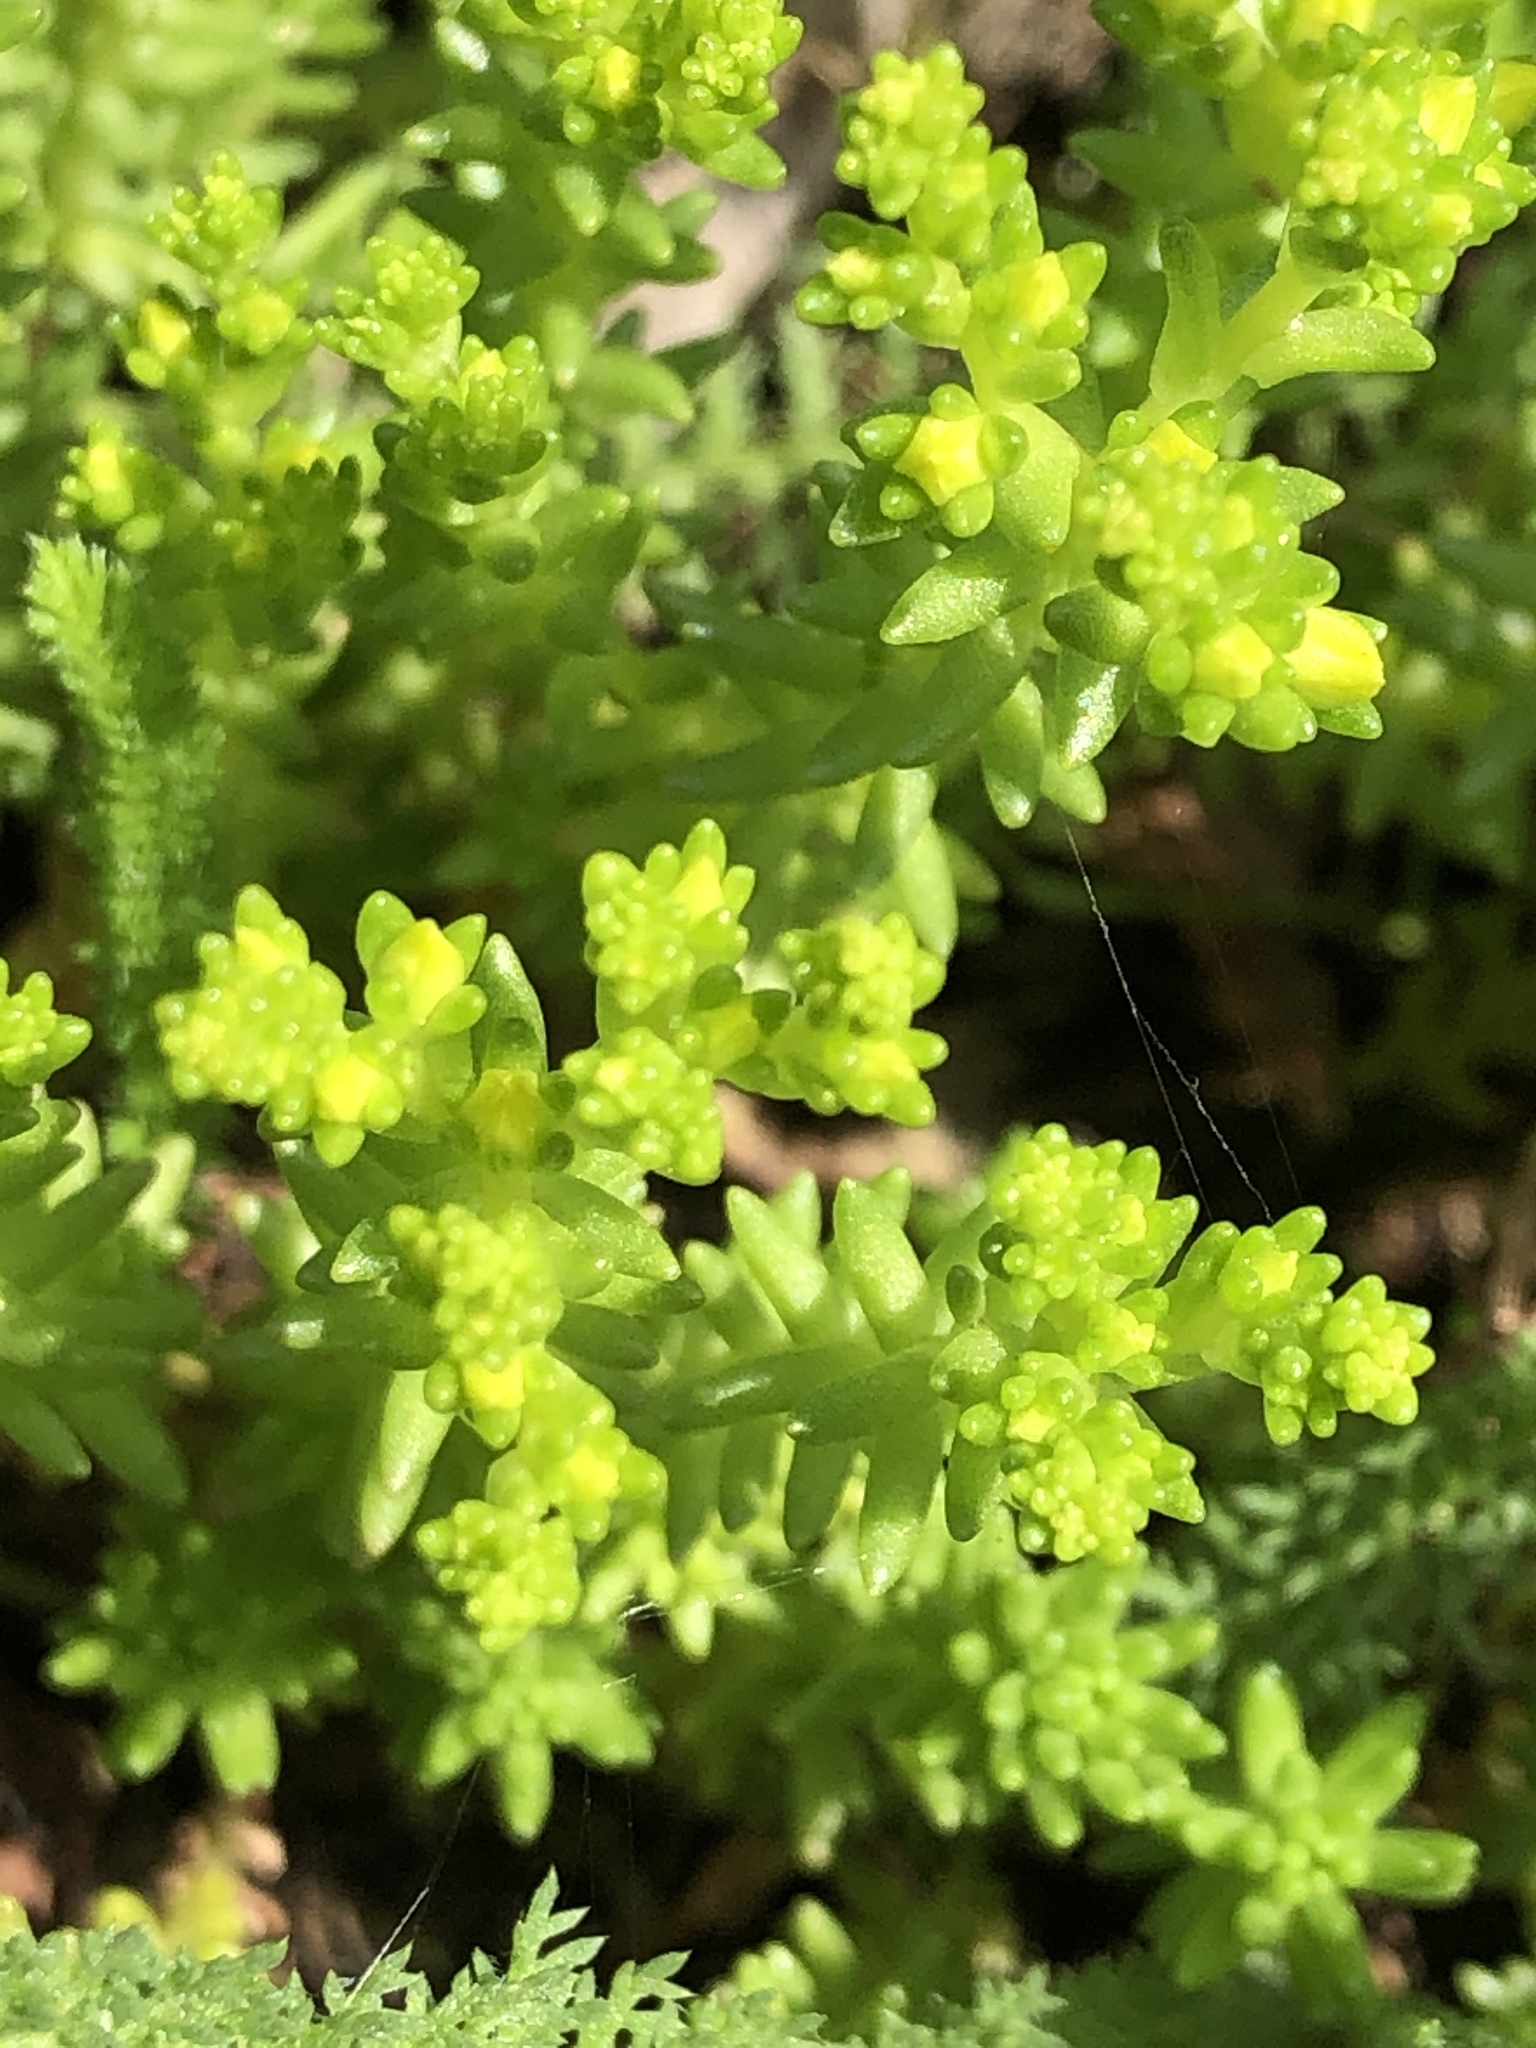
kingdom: Plantae
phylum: Tracheophyta
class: Magnoliopsida
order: Saxifragales
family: Crassulaceae
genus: Sedum
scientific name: Sedum sexangulare
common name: Tasteless stonecrop
